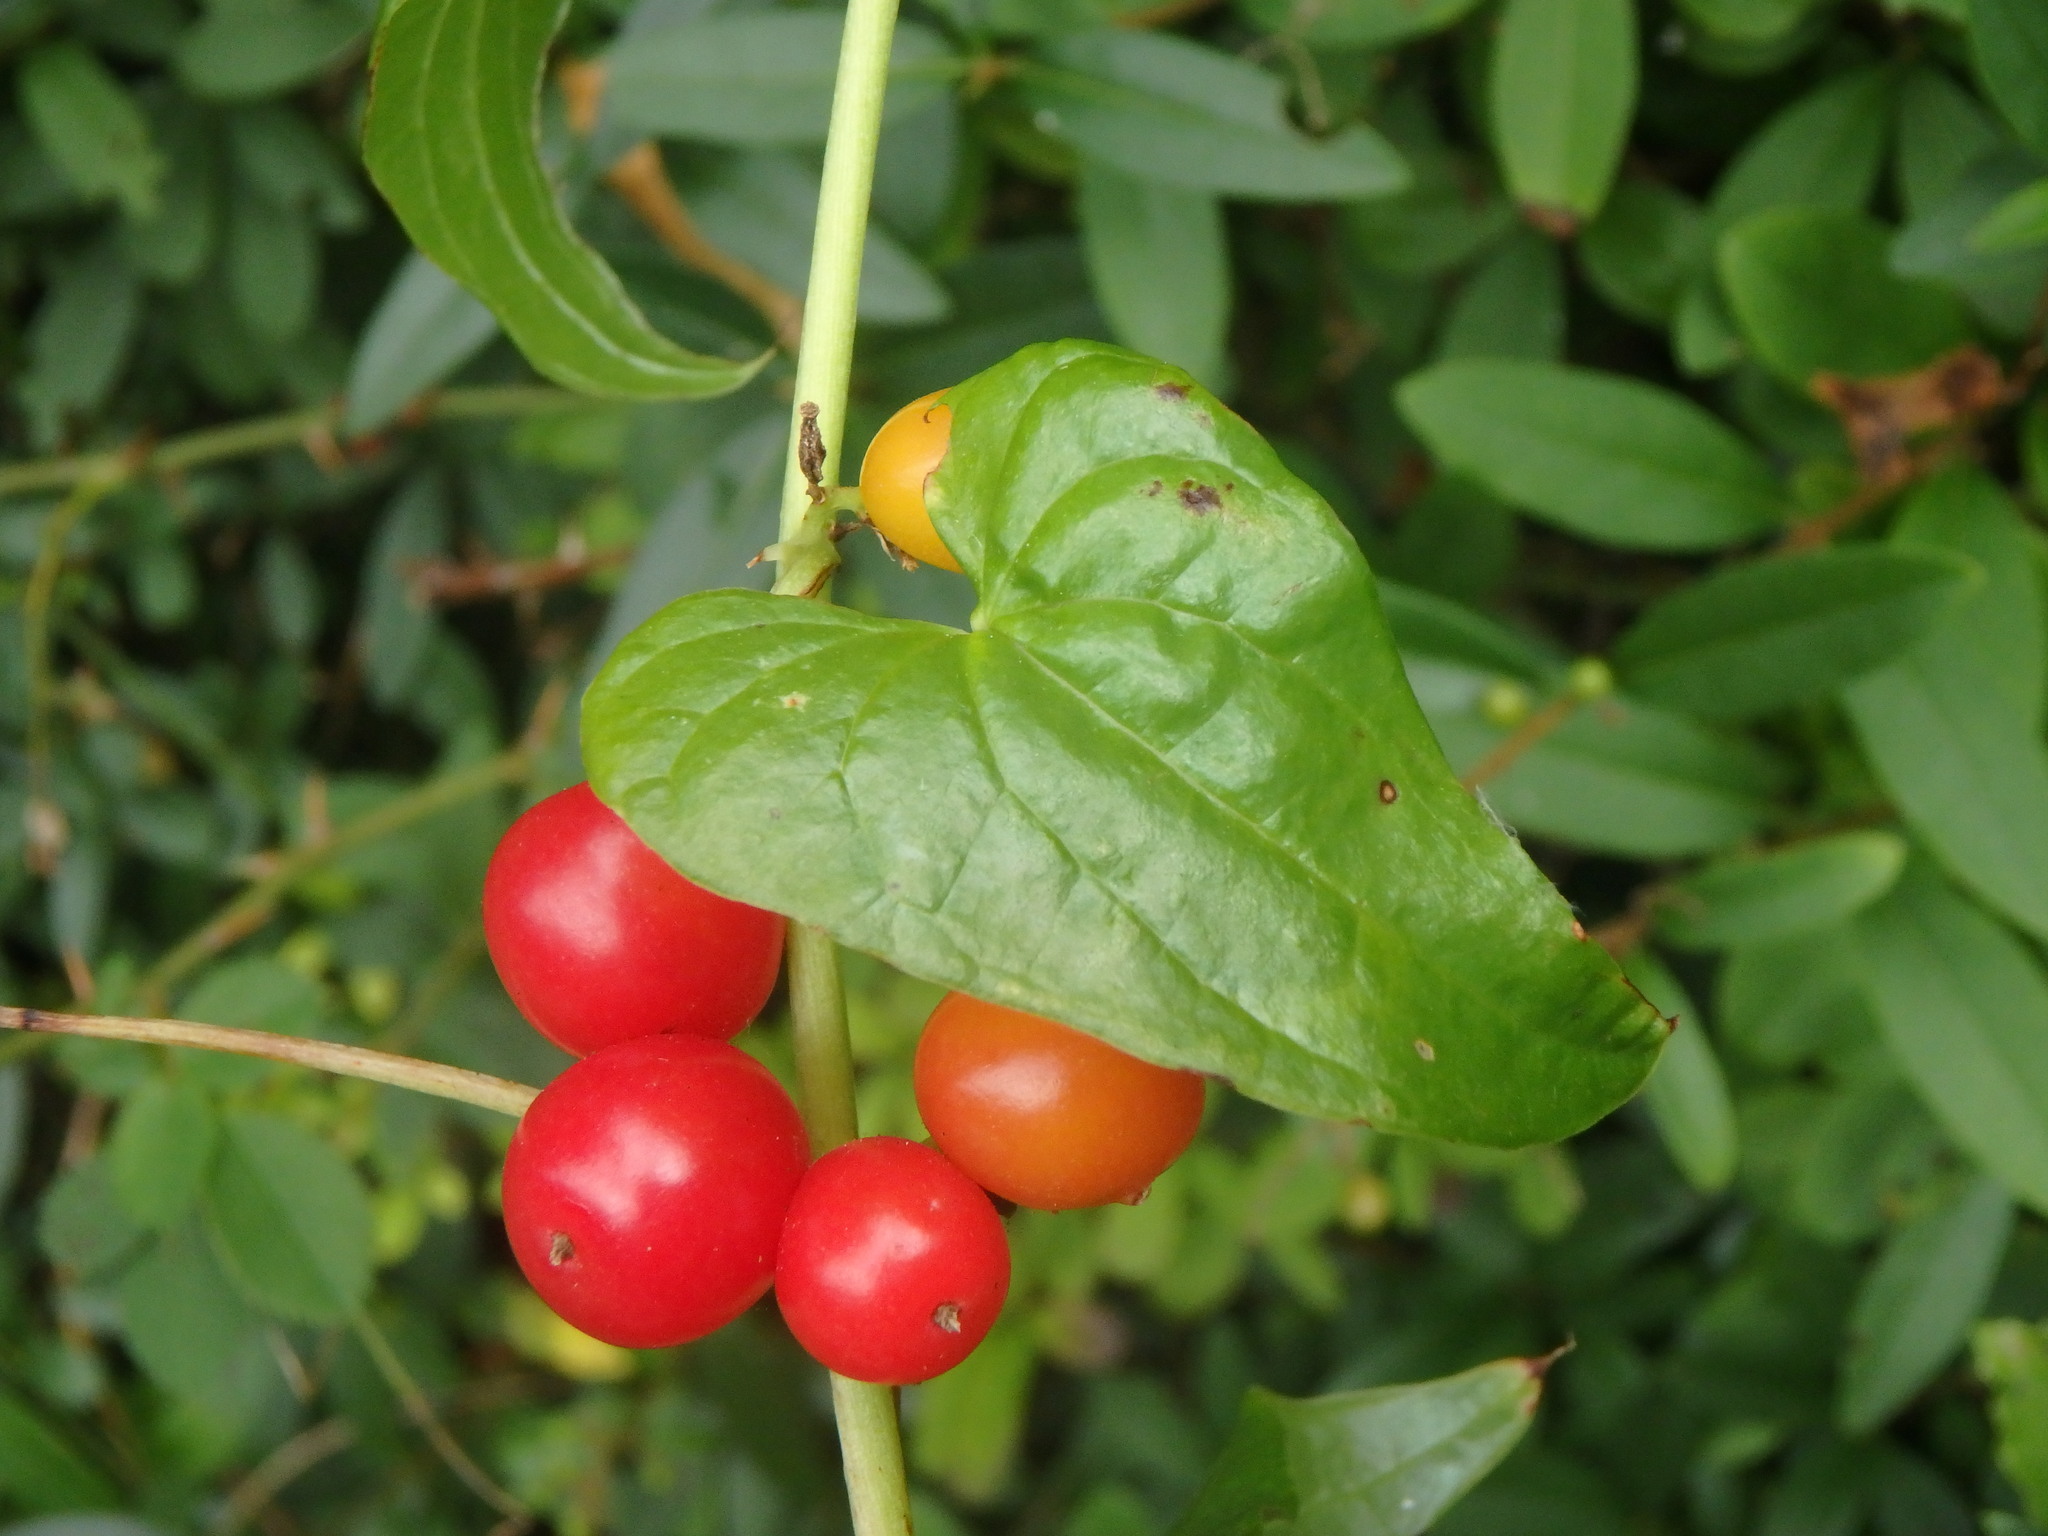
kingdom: Plantae
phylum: Tracheophyta
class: Liliopsida
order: Dioscoreales
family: Dioscoreaceae
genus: Dioscorea
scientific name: Dioscorea communis
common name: Black-bindweed
